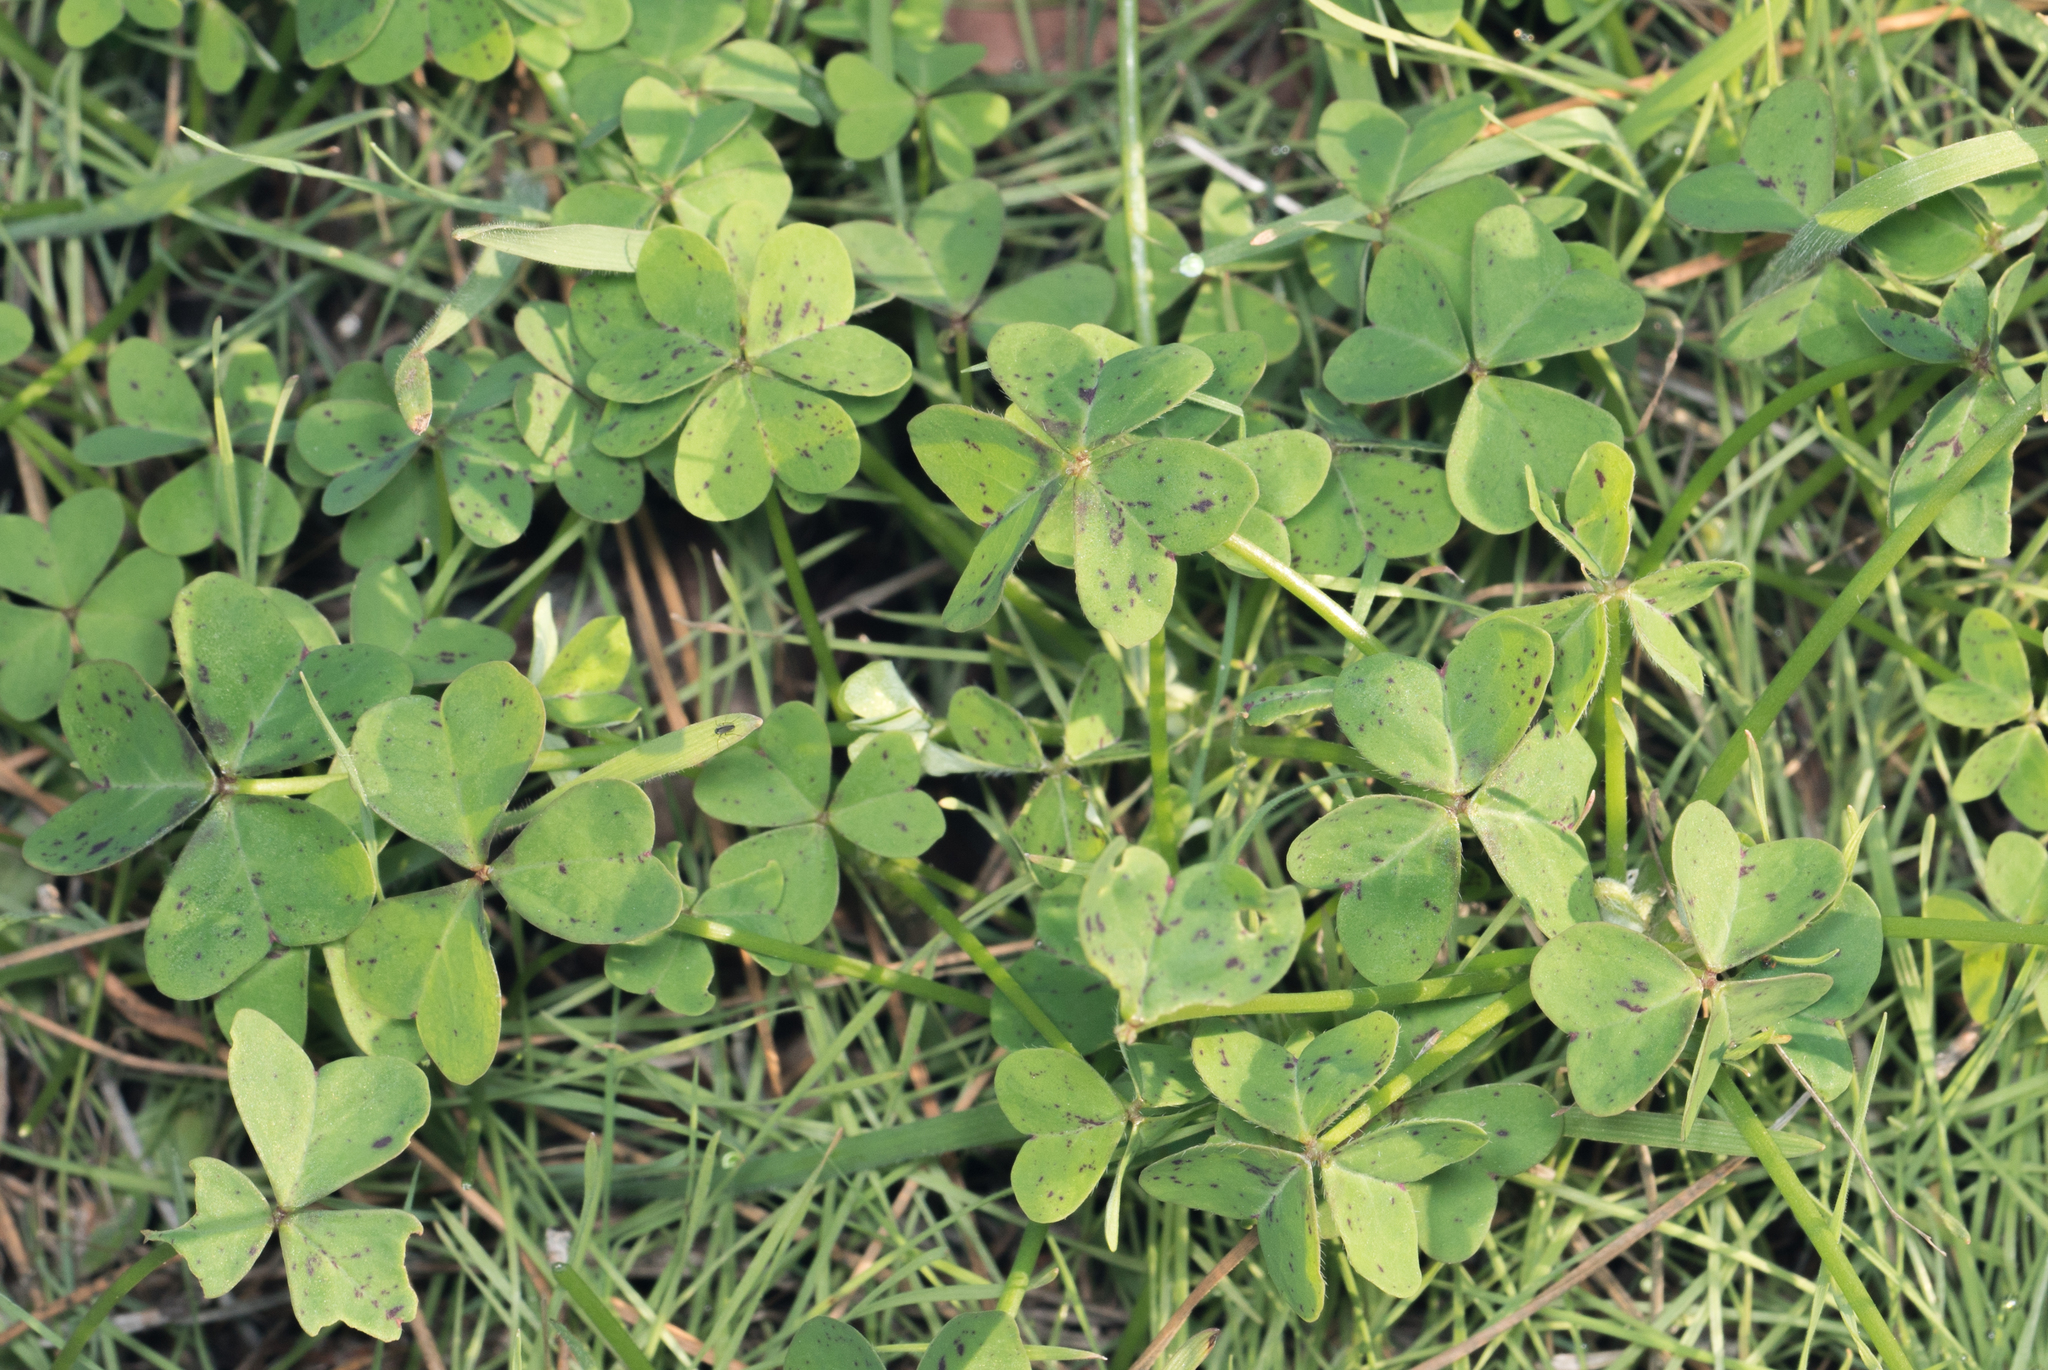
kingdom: Plantae
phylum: Tracheophyta
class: Magnoliopsida
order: Oxalidales
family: Oxalidaceae
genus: Oxalis
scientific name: Oxalis pes-caprae
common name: Bermuda-buttercup
